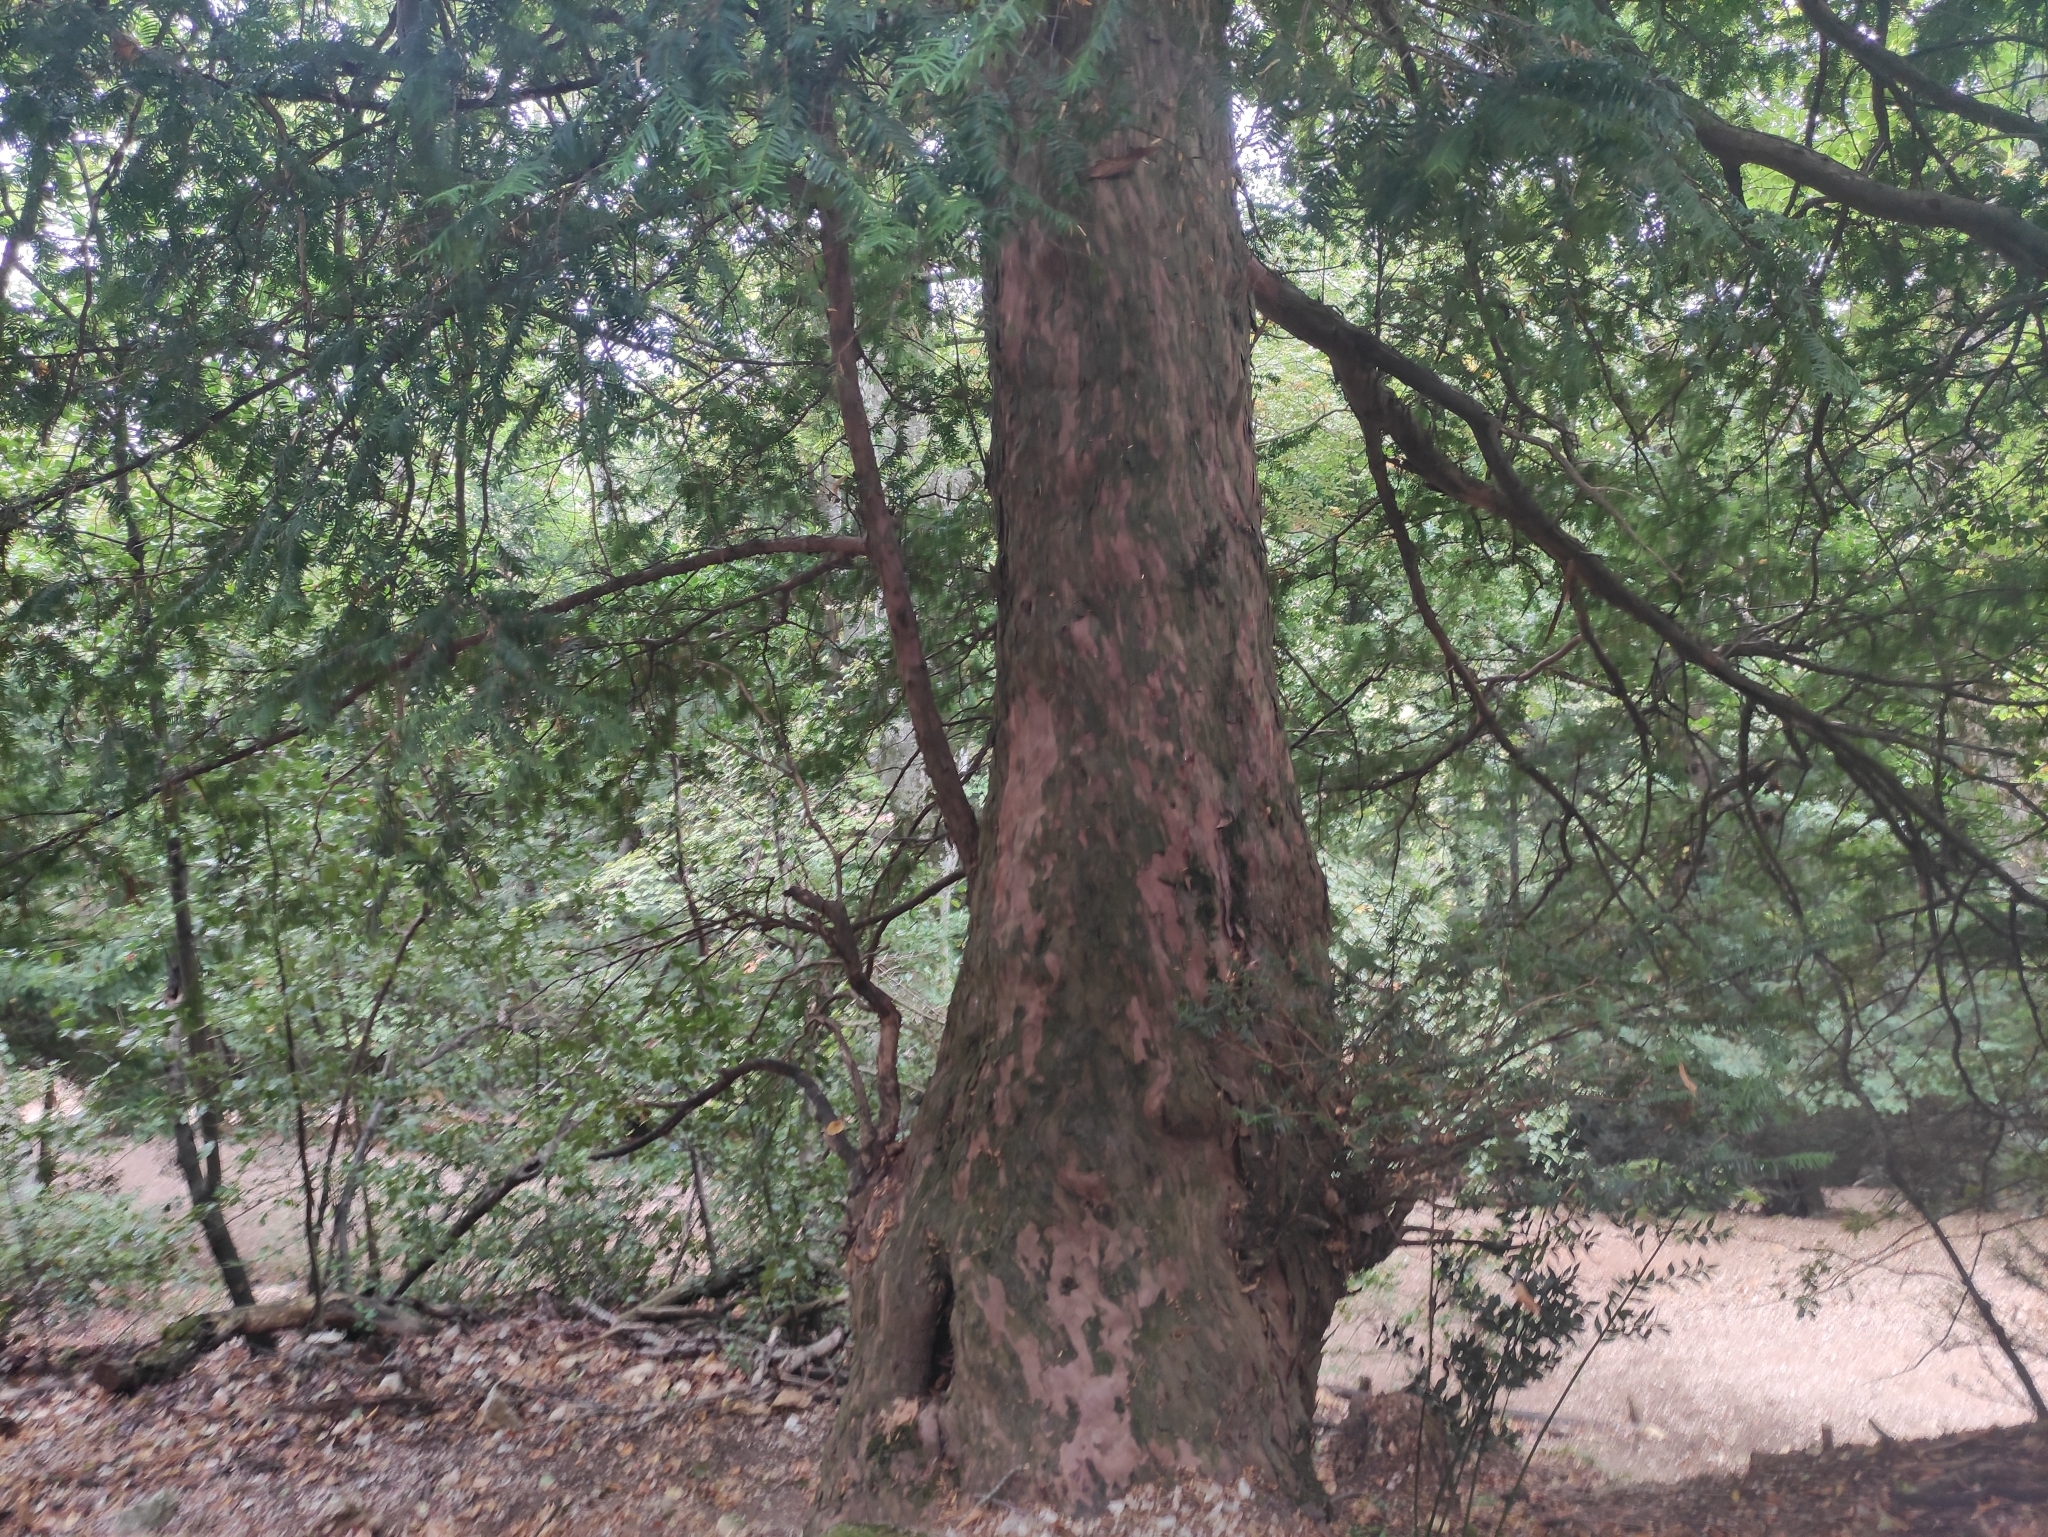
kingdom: Plantae
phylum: Tracheophyta
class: Pinopsida
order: Pinales
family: Taxaceae
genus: Taxus
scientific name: Taxus baccata
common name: Yew
